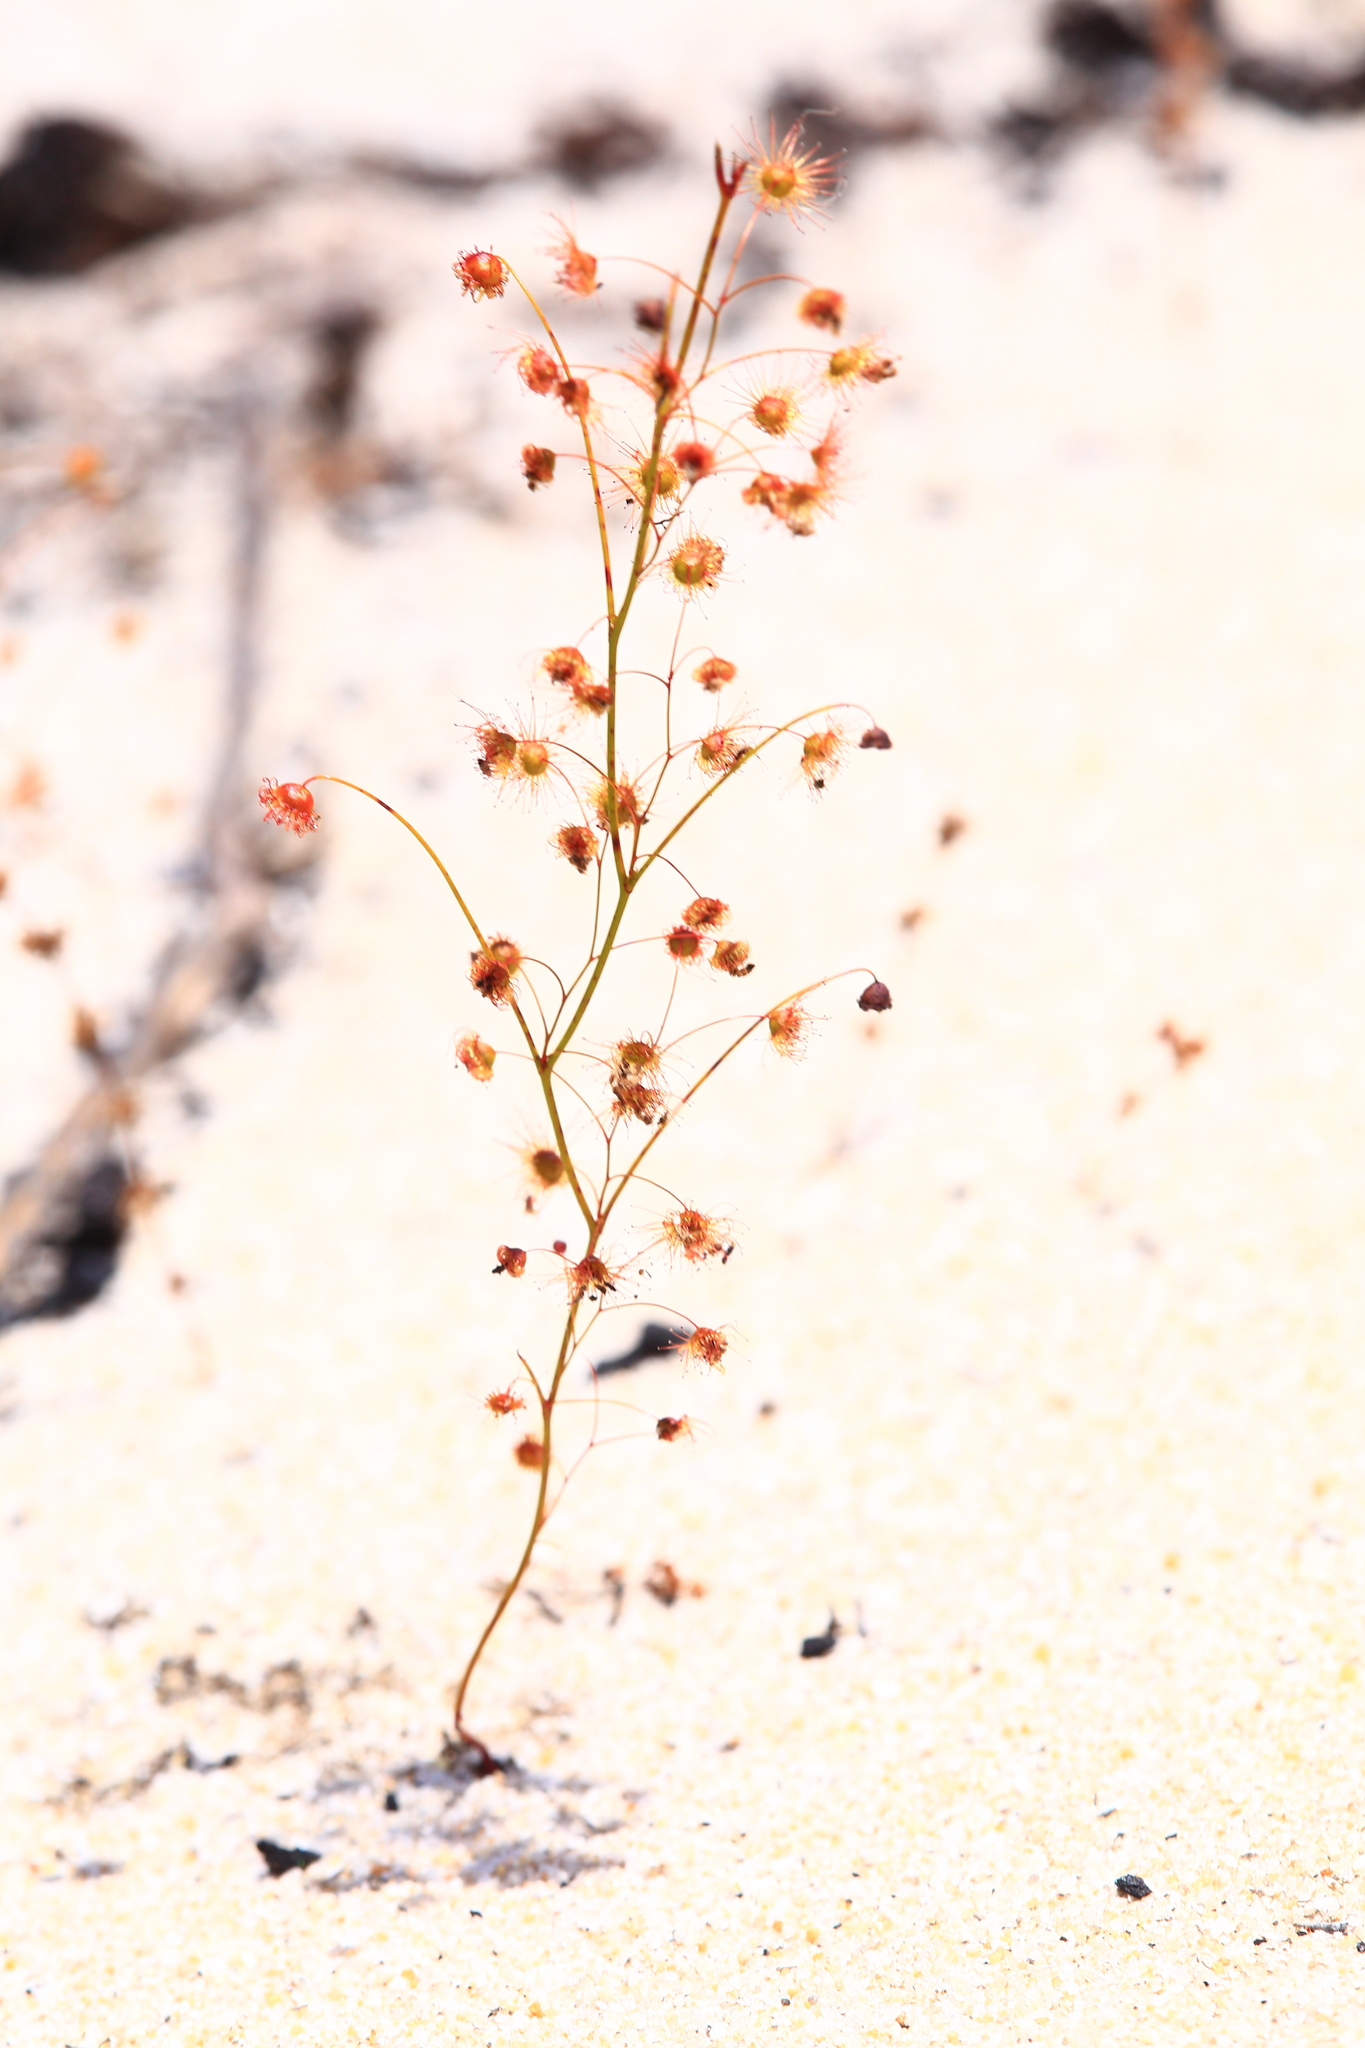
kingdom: Plantae
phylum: Tracheophyta
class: Magnoliopsida
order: Caryophyllales
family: Droseraceae
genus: Drosera
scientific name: Drosera
